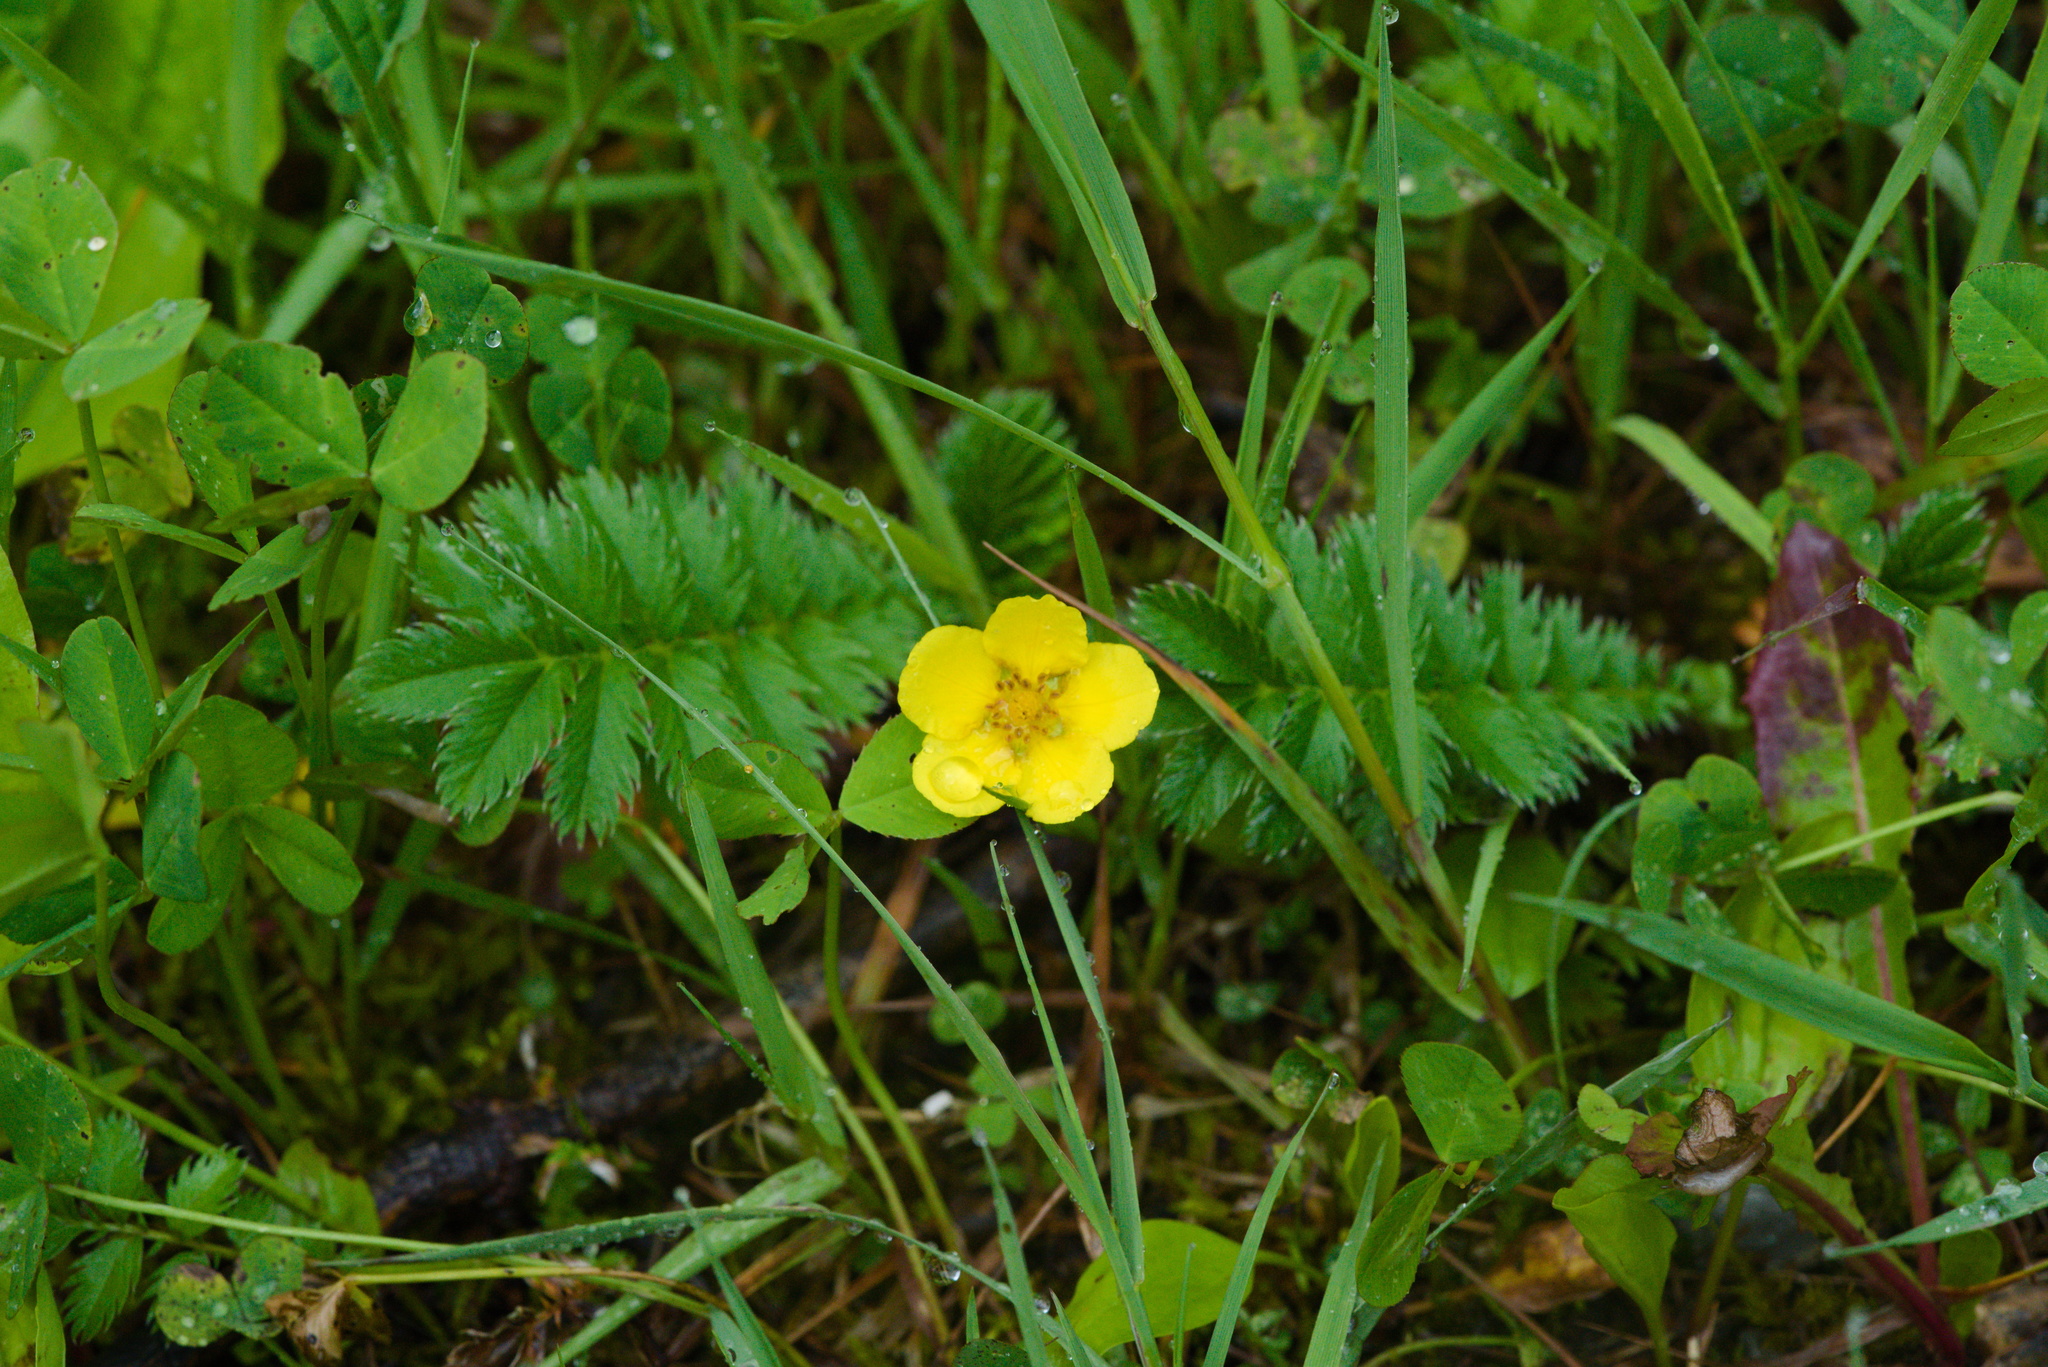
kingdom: Plantae
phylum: Tracheophyta
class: Magnoliopsida
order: Rosales
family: Rosaceae
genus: Argentina
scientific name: Argentina anserina
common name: Common silverweed
